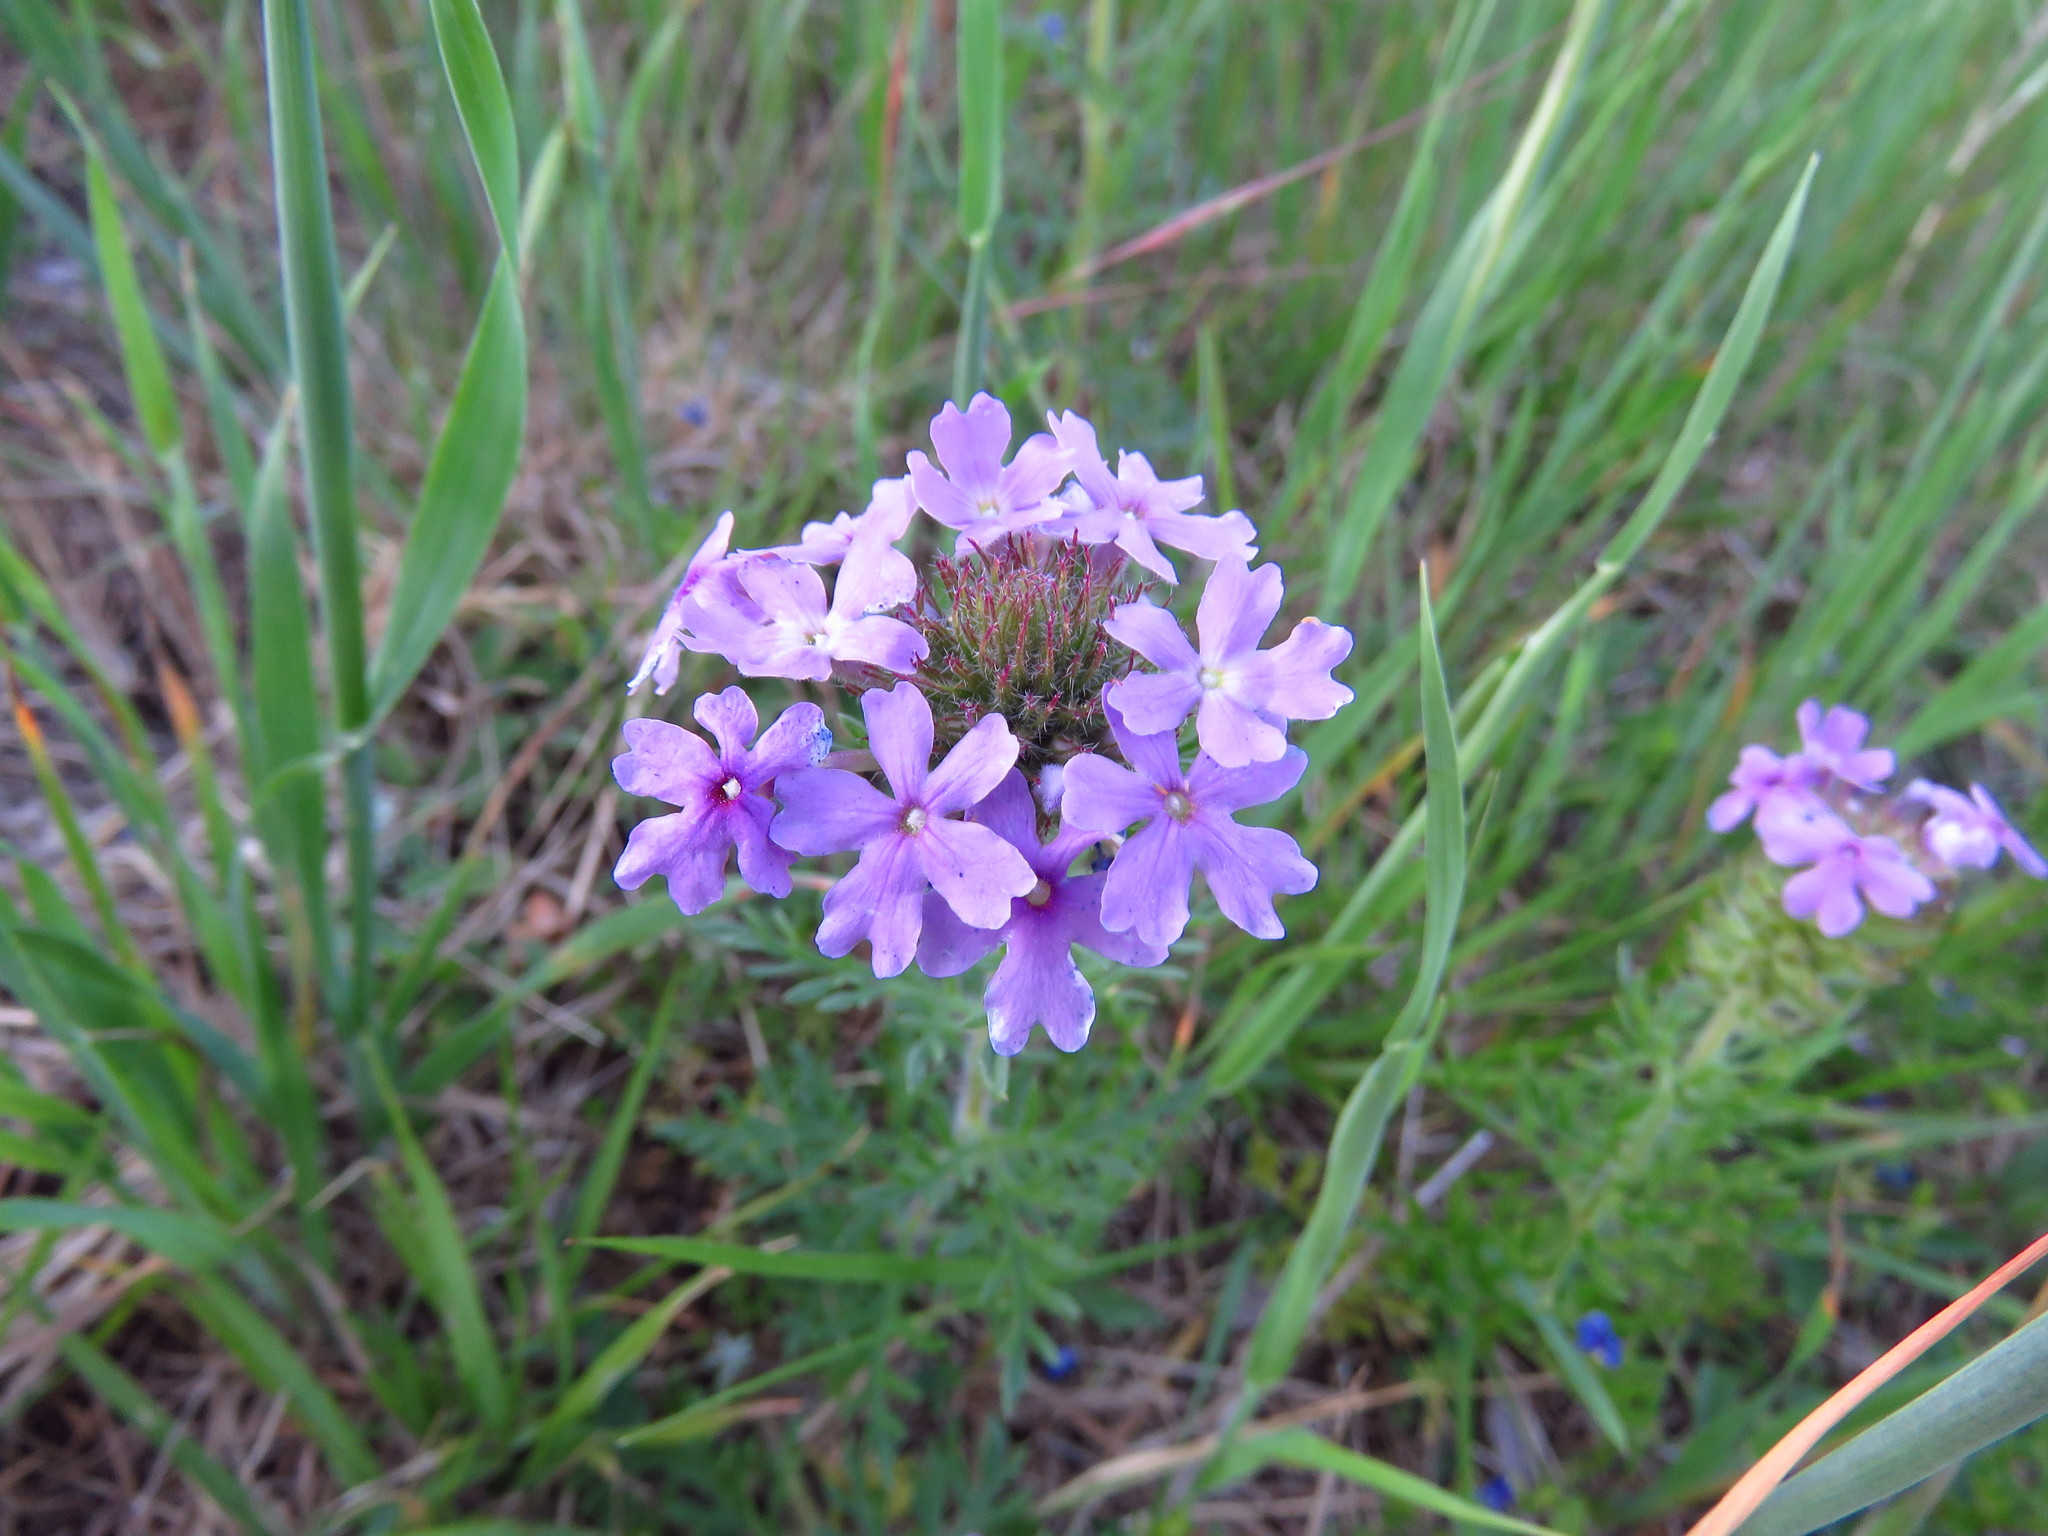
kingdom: Plantae
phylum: Tracheophyta
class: Magnoliopsida
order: Lamiales
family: Verbenaceae
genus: Verbena
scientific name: Verbena bipinnatifida
